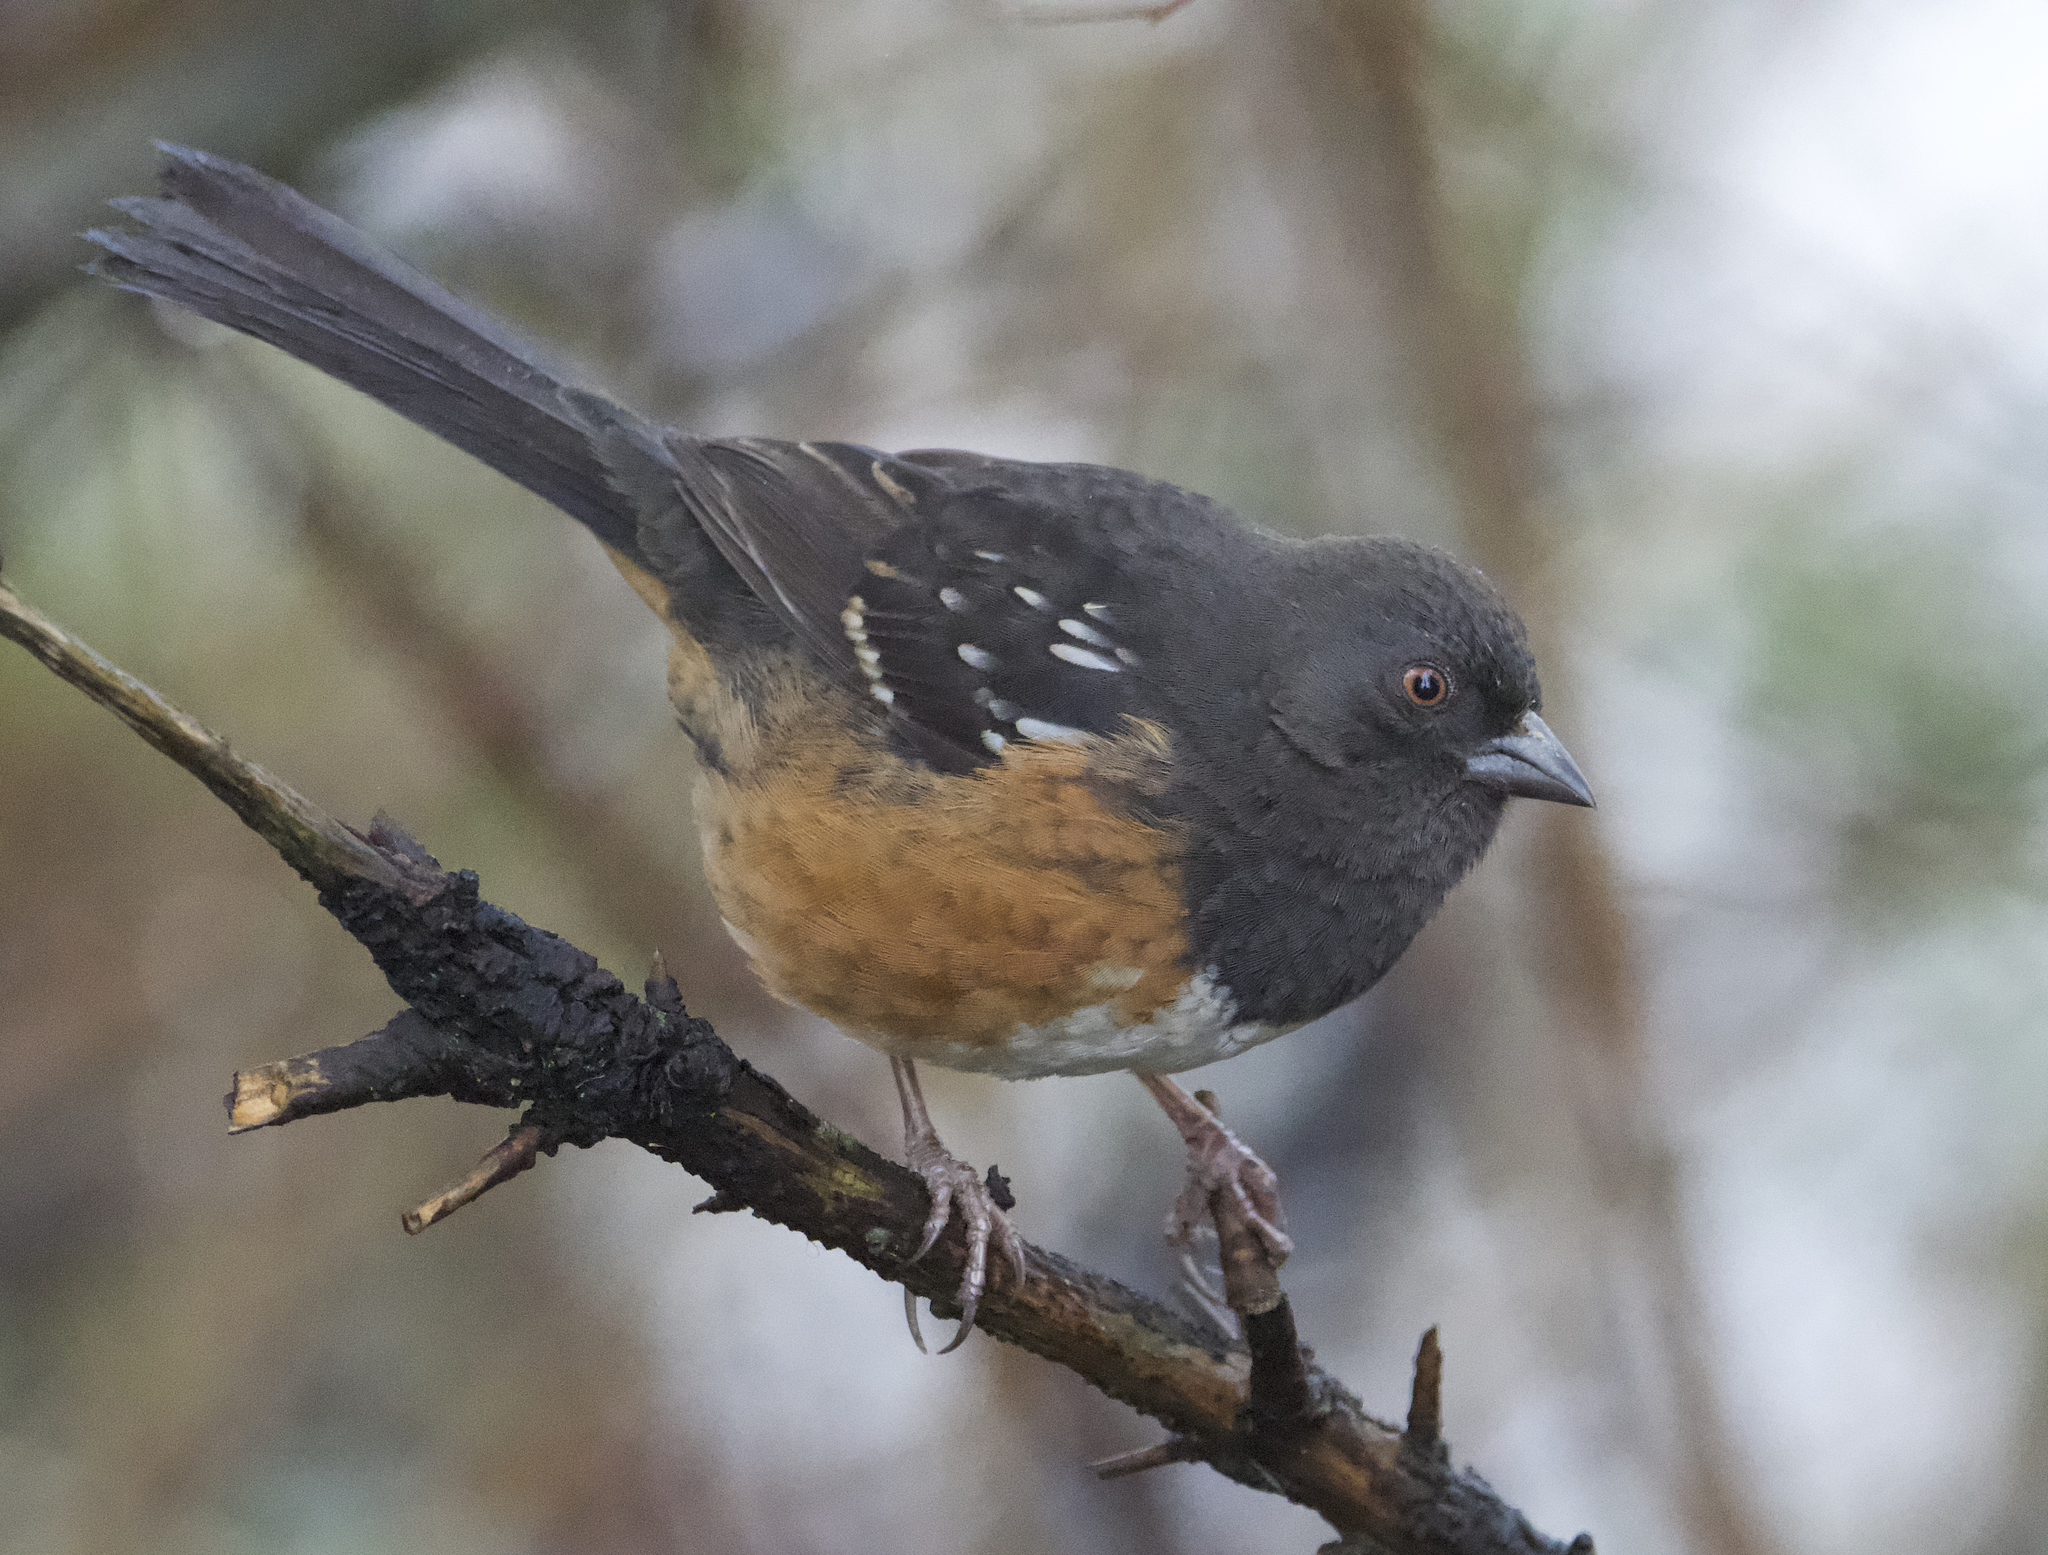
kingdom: Animalia
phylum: Chordata
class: Aves
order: Passeriformes
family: Passerellidae
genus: Pipilo
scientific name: Pipilo maculatus
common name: Spotted towhee
